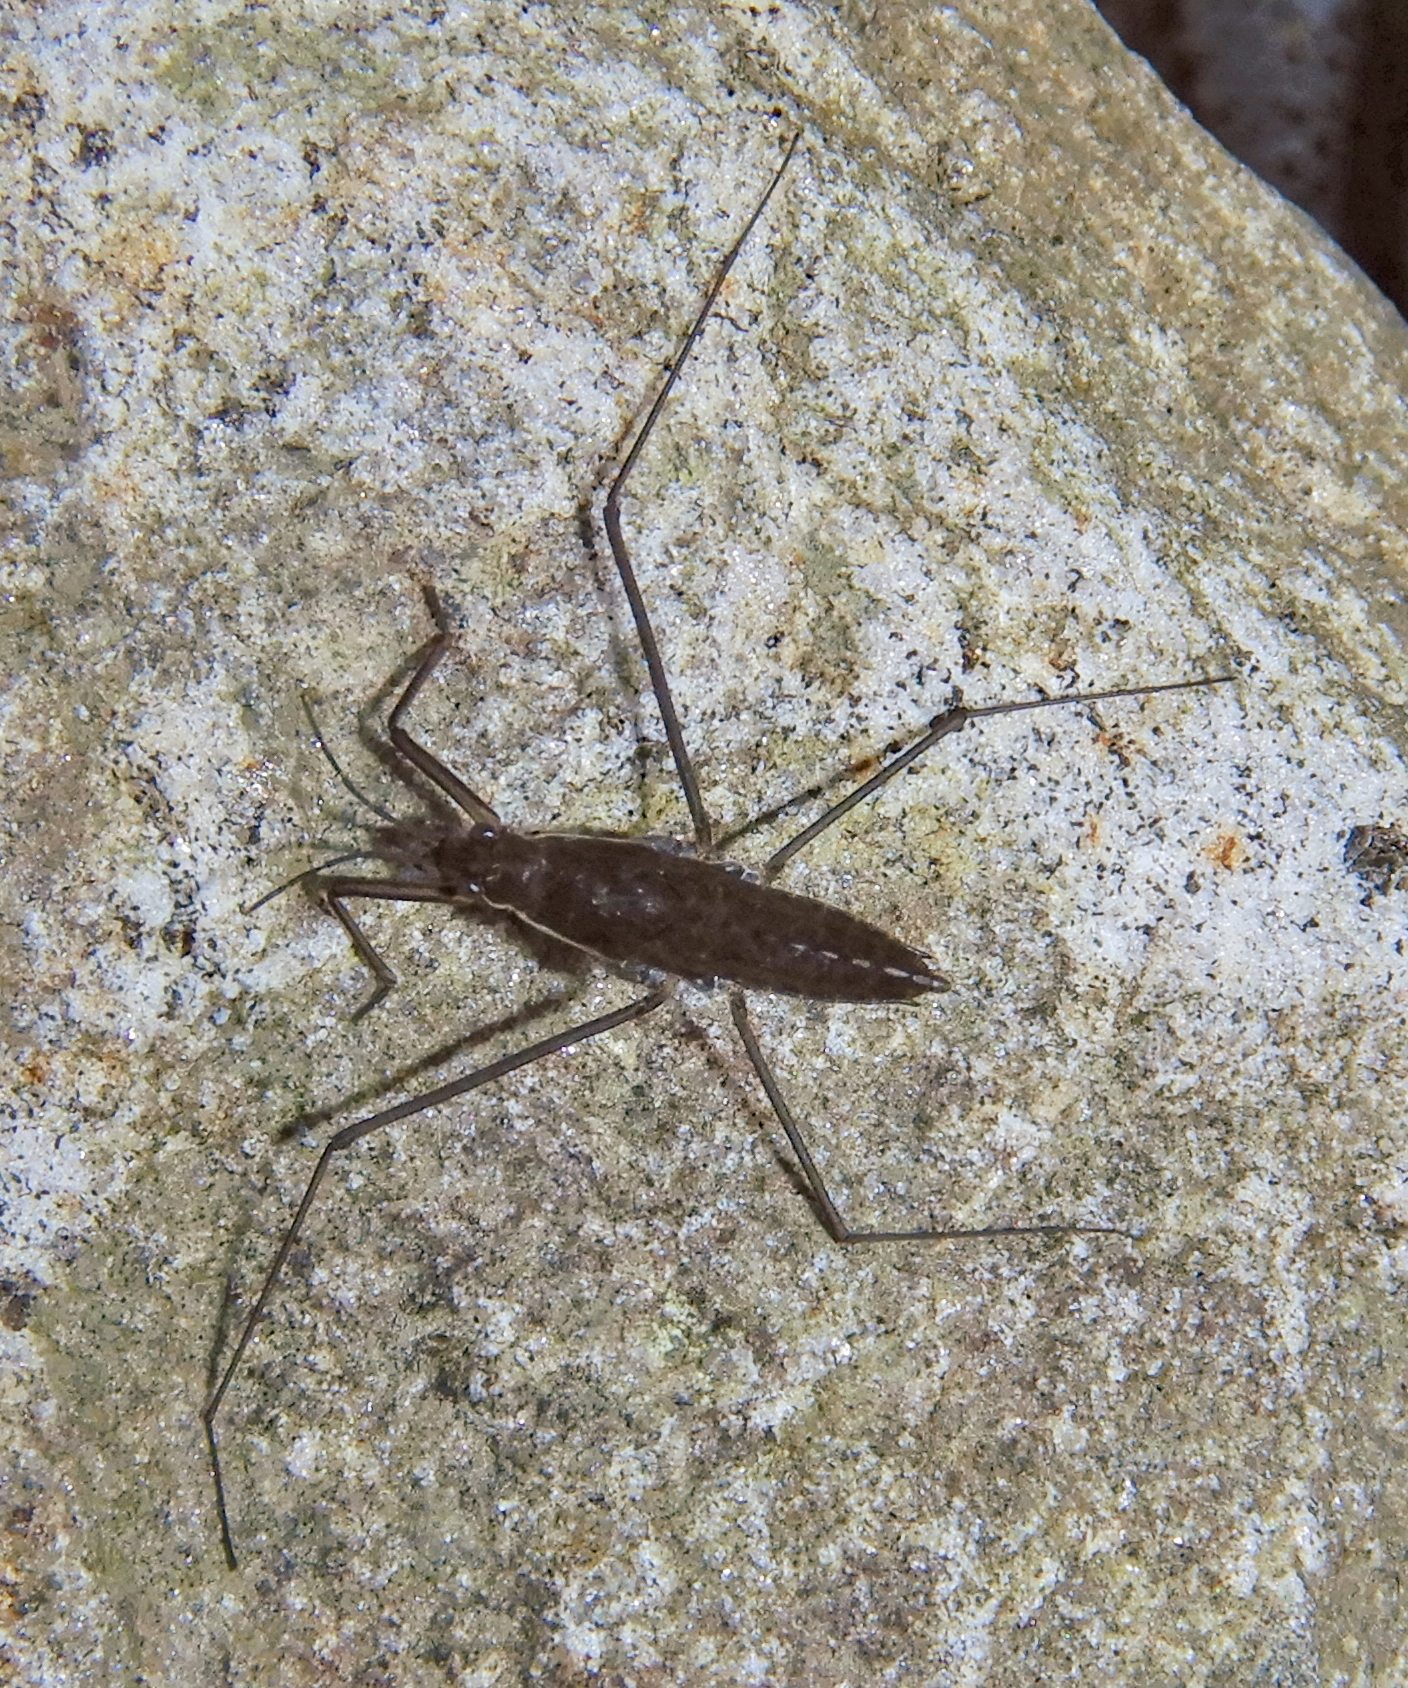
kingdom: Animalia
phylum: Arthropoda
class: Insecta
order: Hemiptera
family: Gerridae
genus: Aquarius
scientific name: Aquarius remigis
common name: Common water strider
